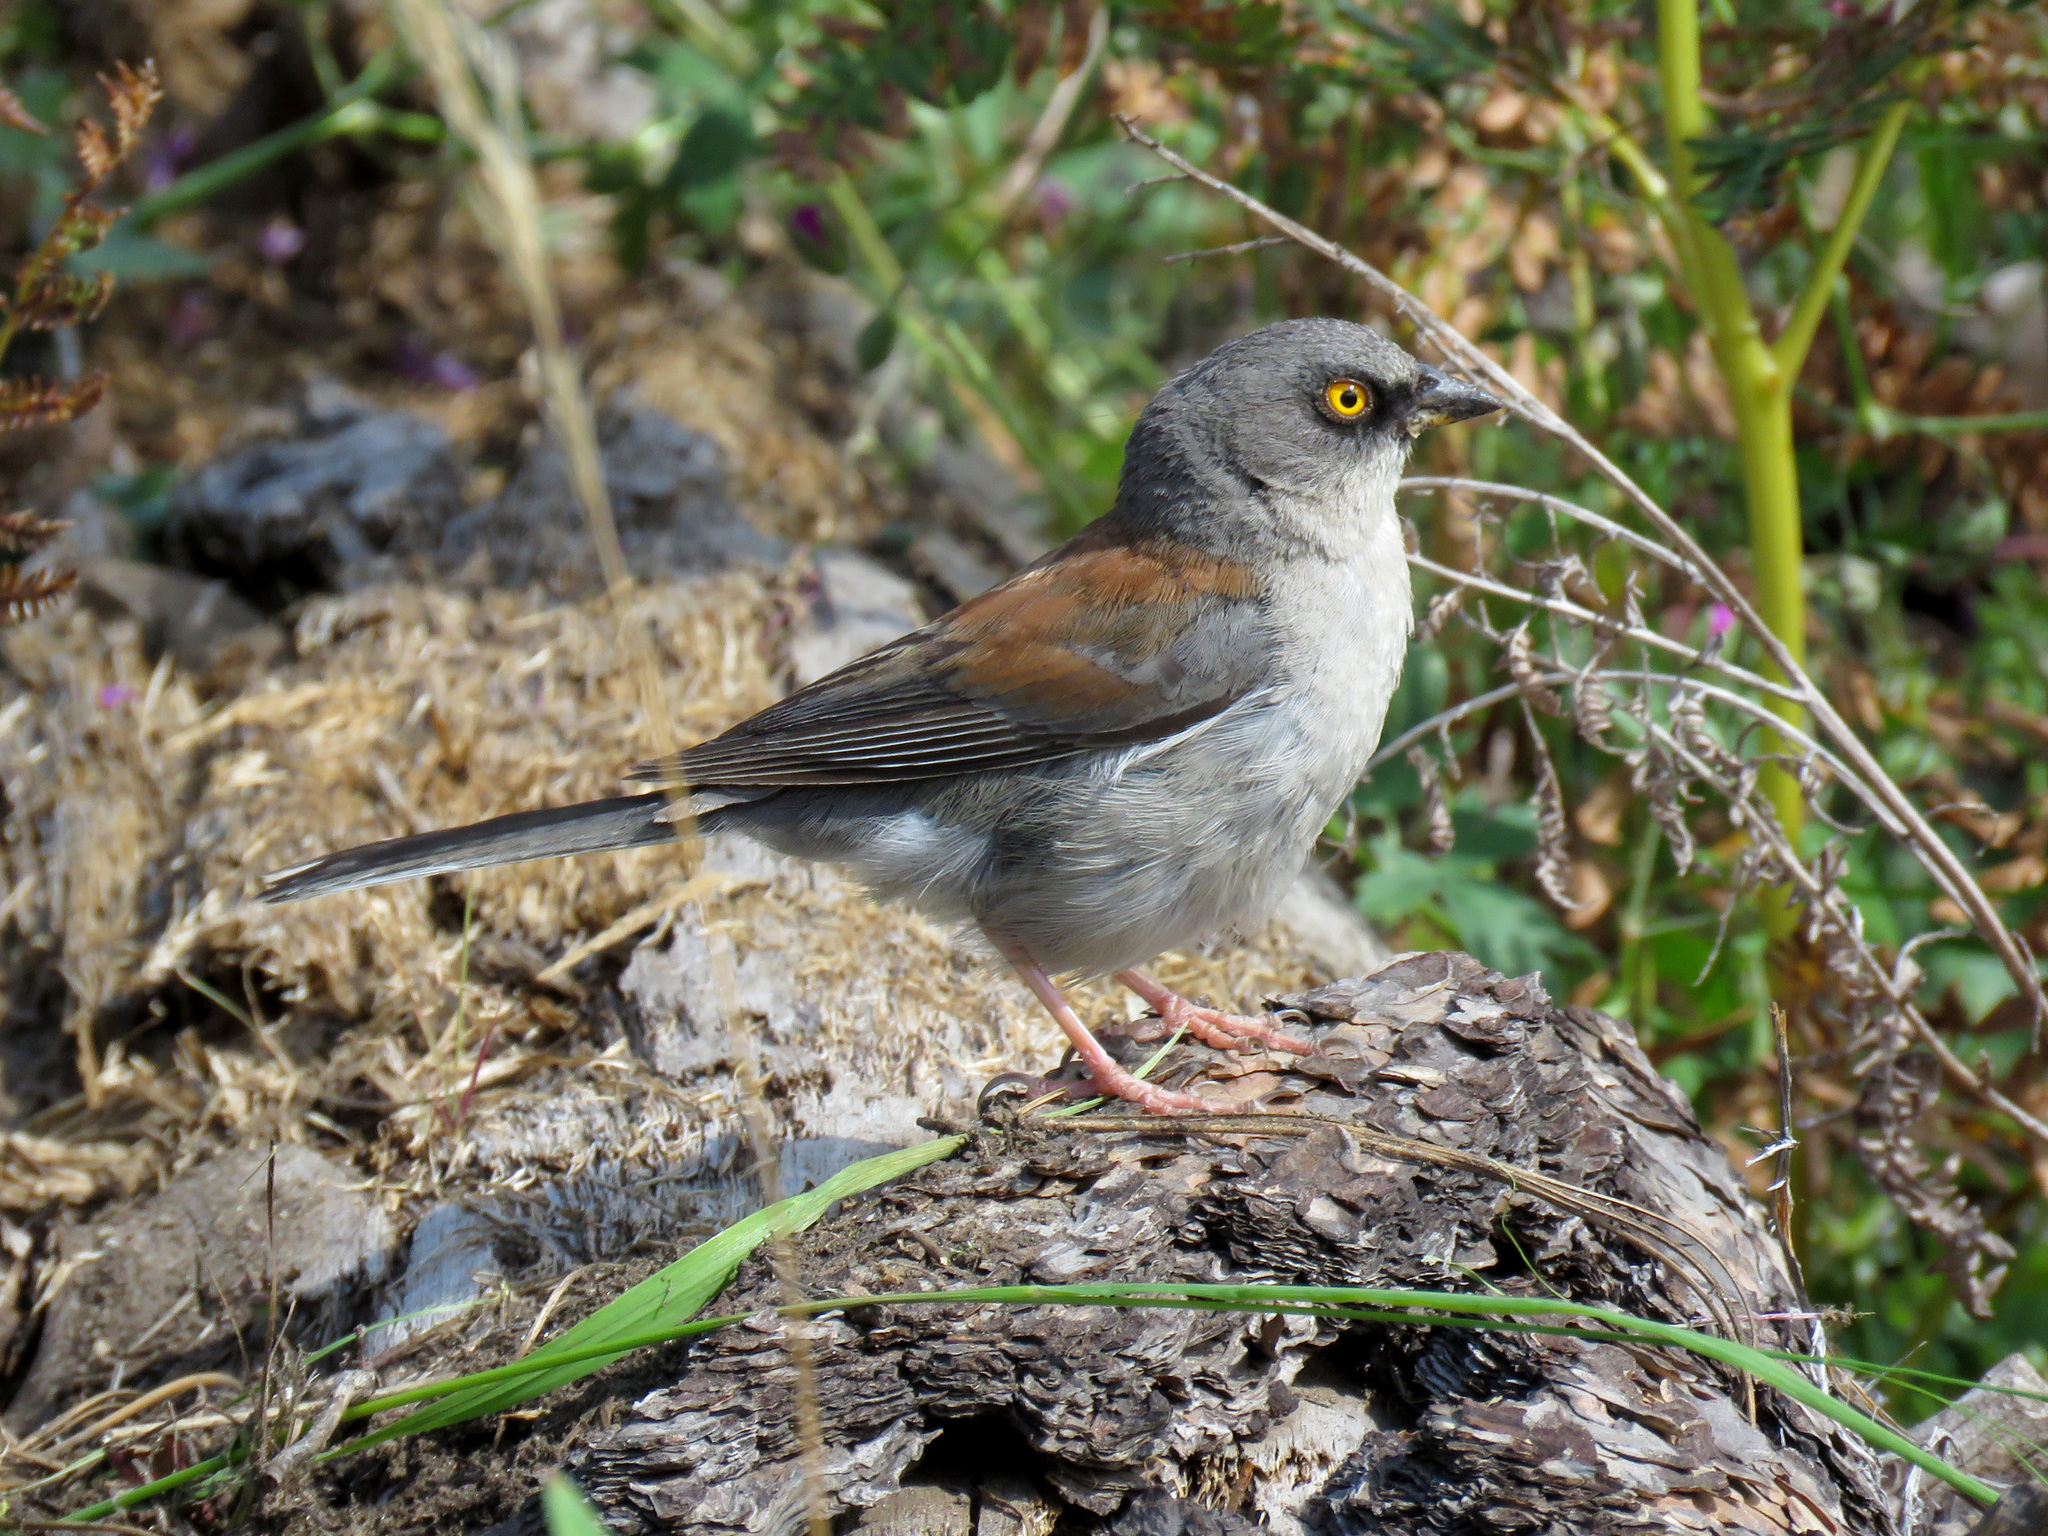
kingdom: Animalia
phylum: Chordata
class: Aves
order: Passeriformes
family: Passerellidae
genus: Junco
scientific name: Junco phaeonotus
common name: Yellow-eyed junco
